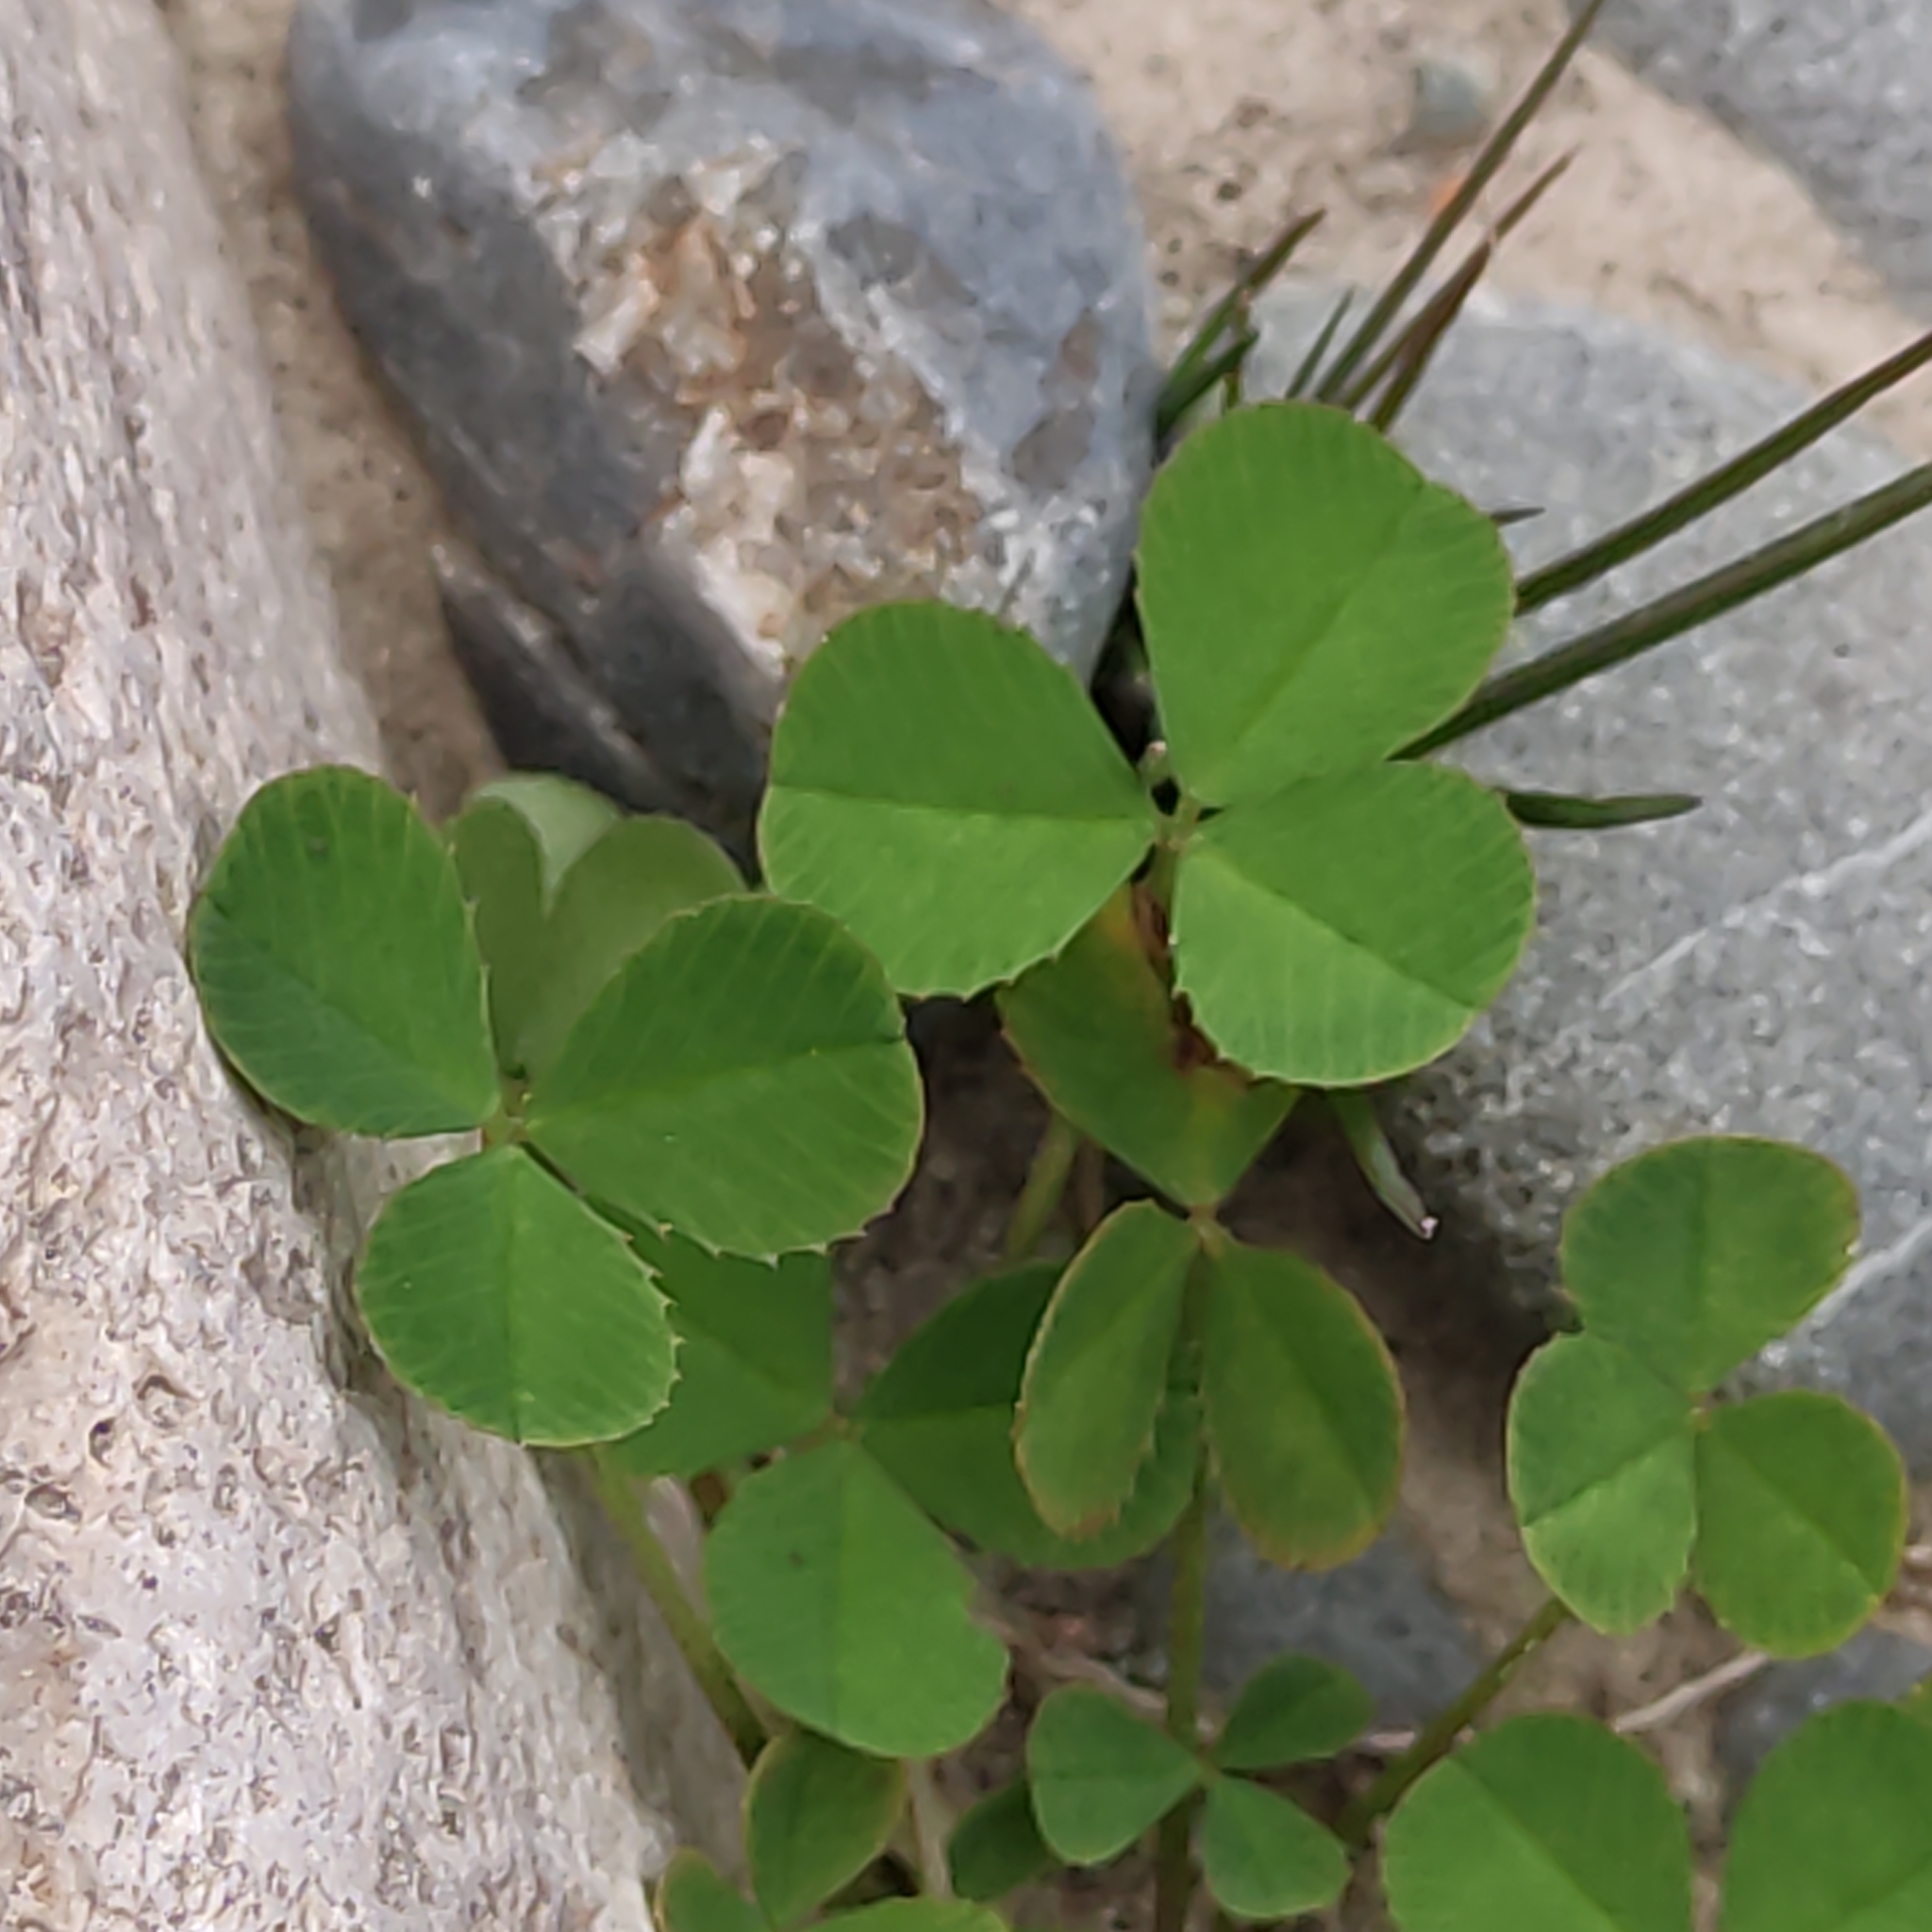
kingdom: Plantae
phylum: Tracheophyta
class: Magnoliopsida
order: Fabales
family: Fabaceae
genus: Trifolium
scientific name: Trifolium repens
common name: White clover
